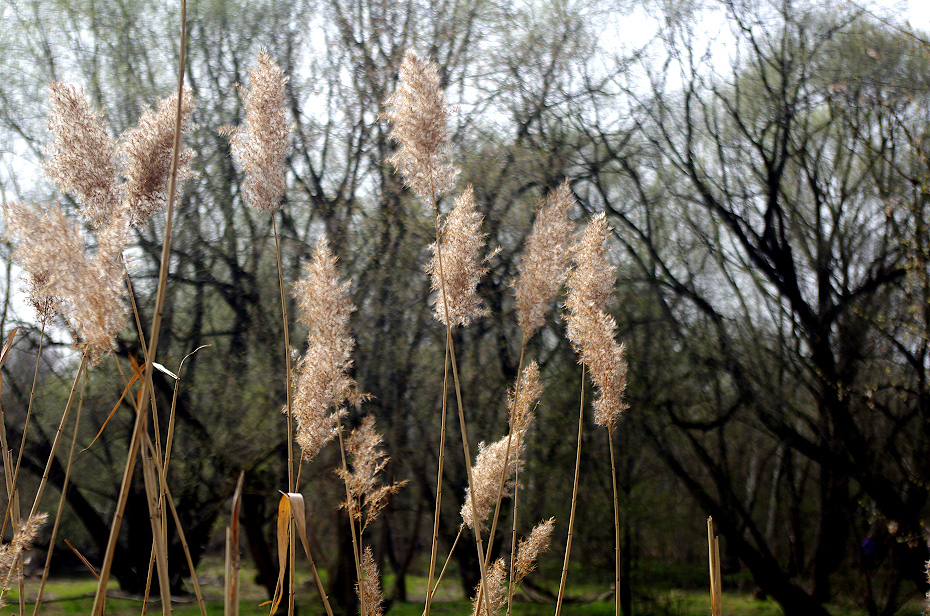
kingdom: Plantae
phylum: Tracheophyta
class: Liliopsida
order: Poales
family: Poaceae
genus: Phragmites
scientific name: Phragmites australis
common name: Common reed
